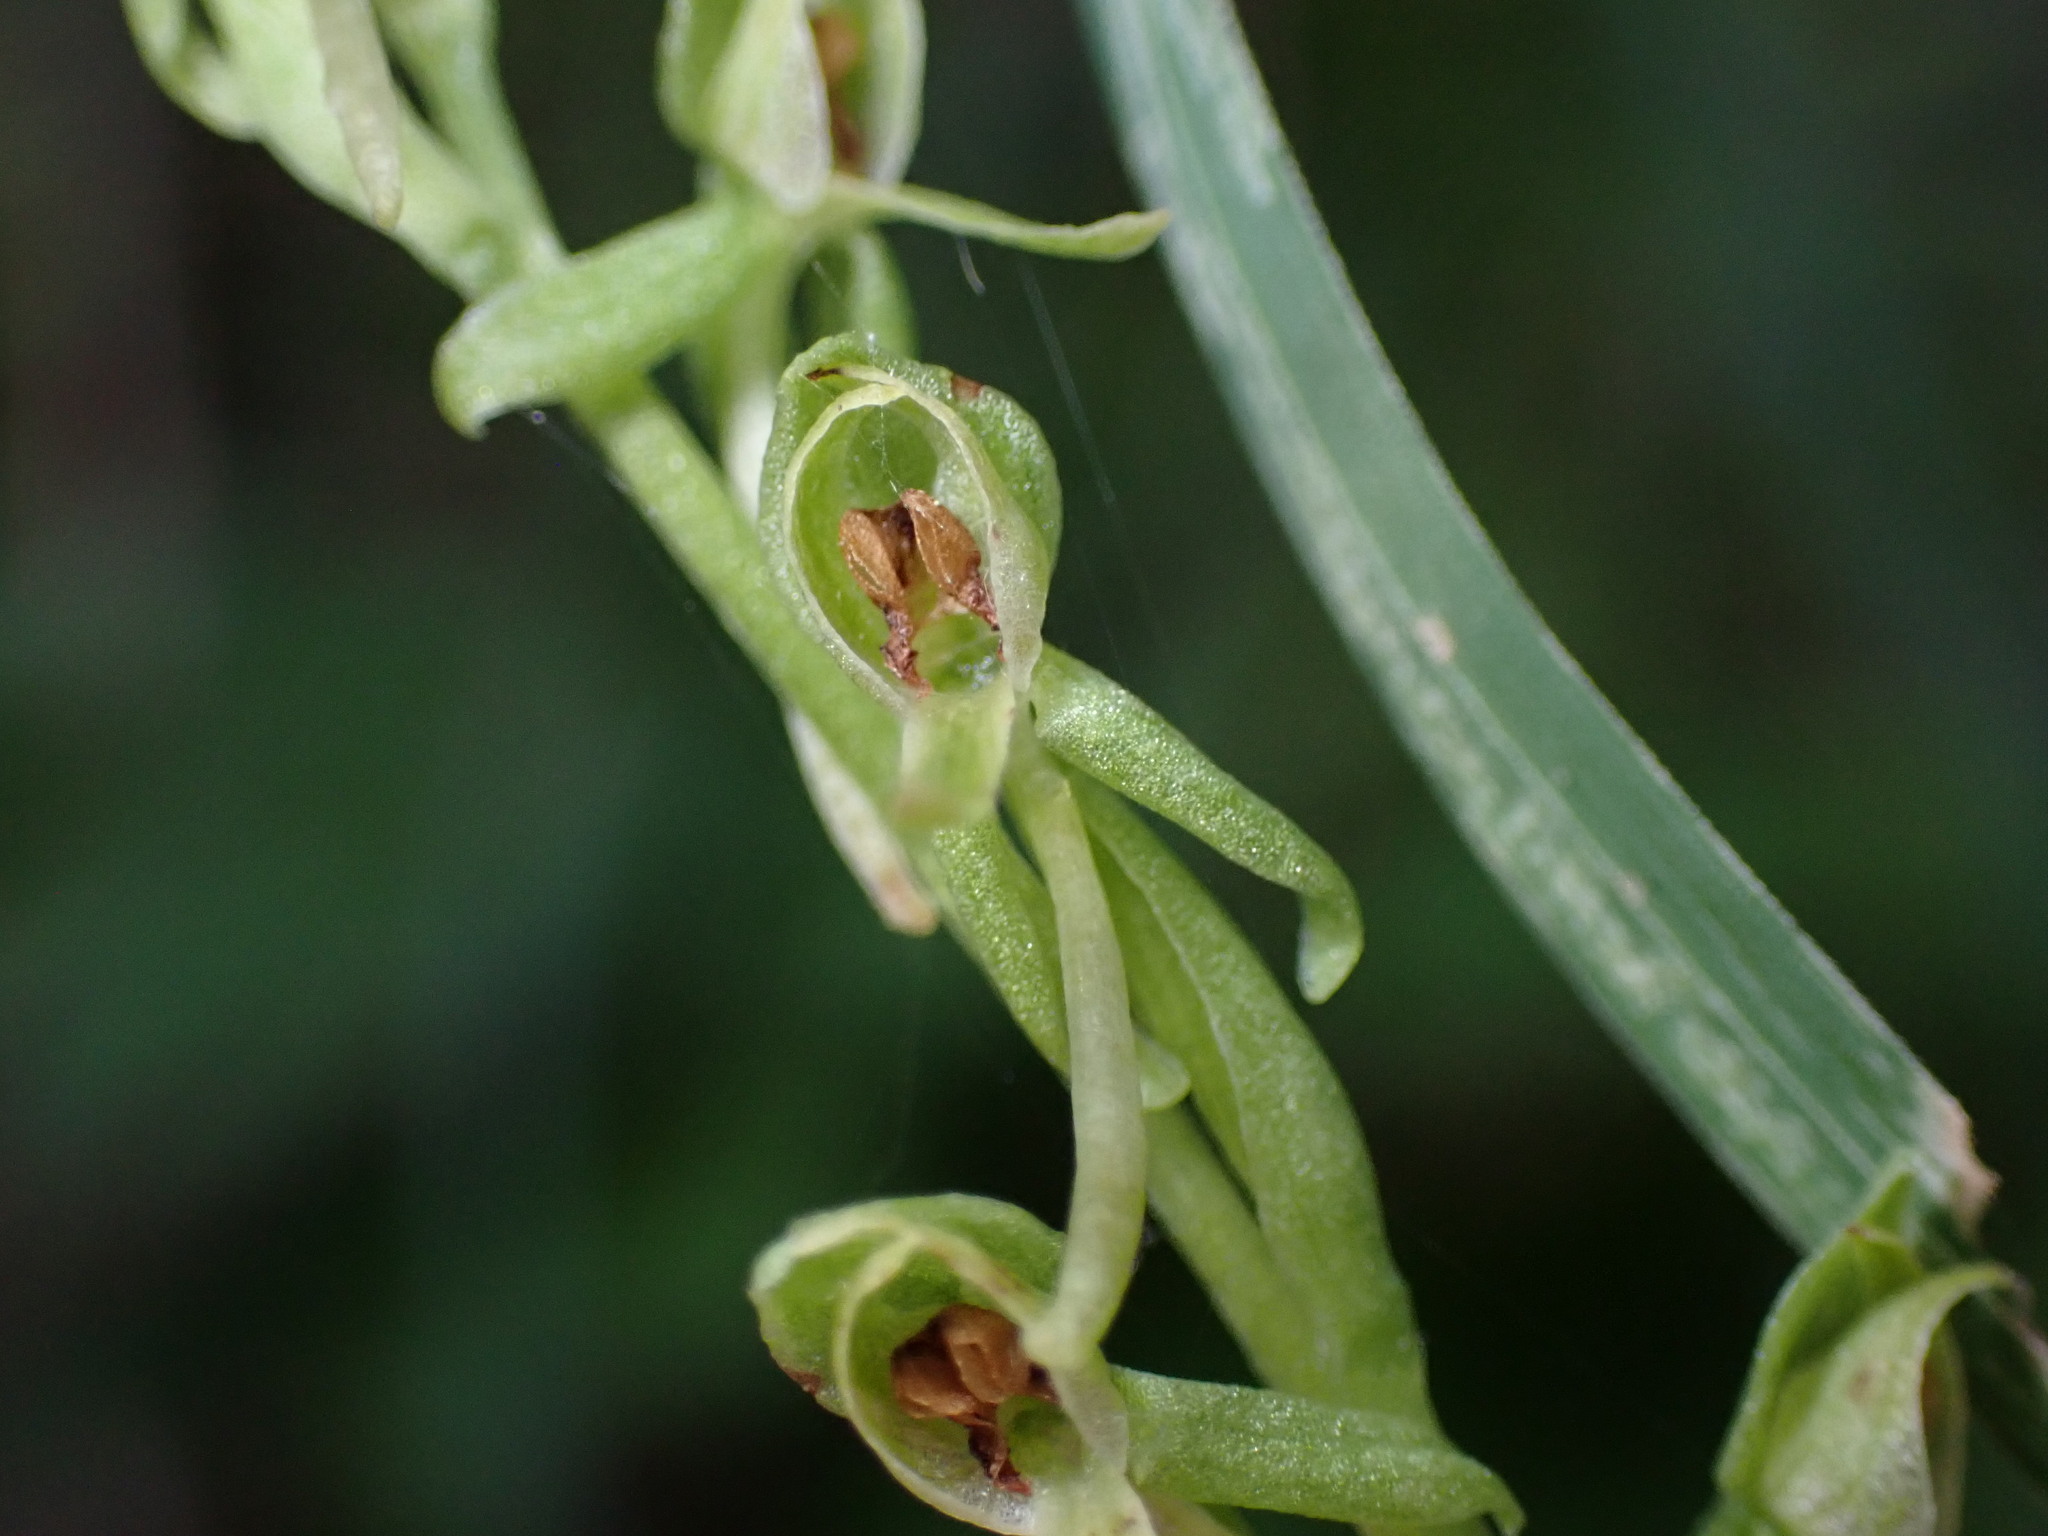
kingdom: Plantae
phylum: Tracheophyta
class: Liliopsida
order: Asparagales
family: Orchidaceae
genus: Platanthera
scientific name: Platanthera zothecina
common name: Alcove bog orchid
